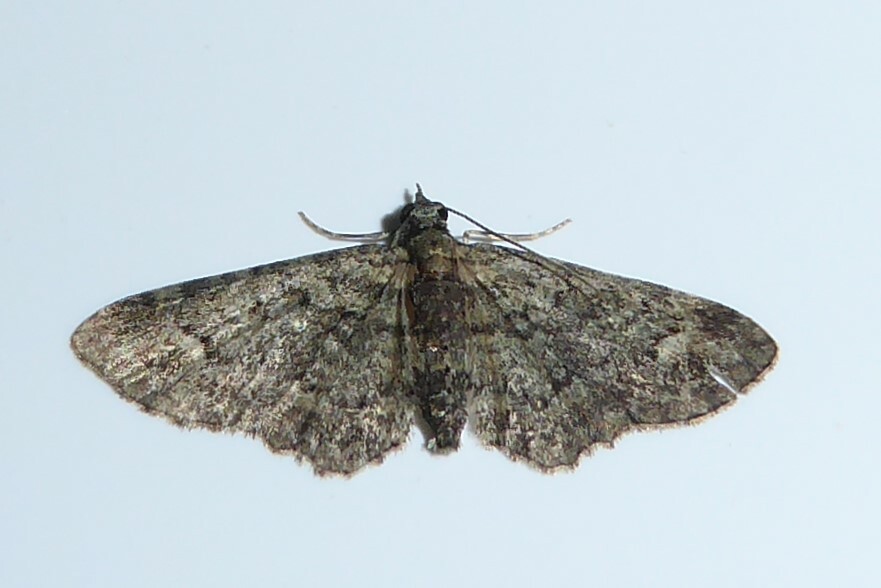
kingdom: Animalia
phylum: Arthropoda
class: Insecta
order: Lepidoptera
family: Geometridae
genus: Pasiphilodes
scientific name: Pasiphilodes testulata
